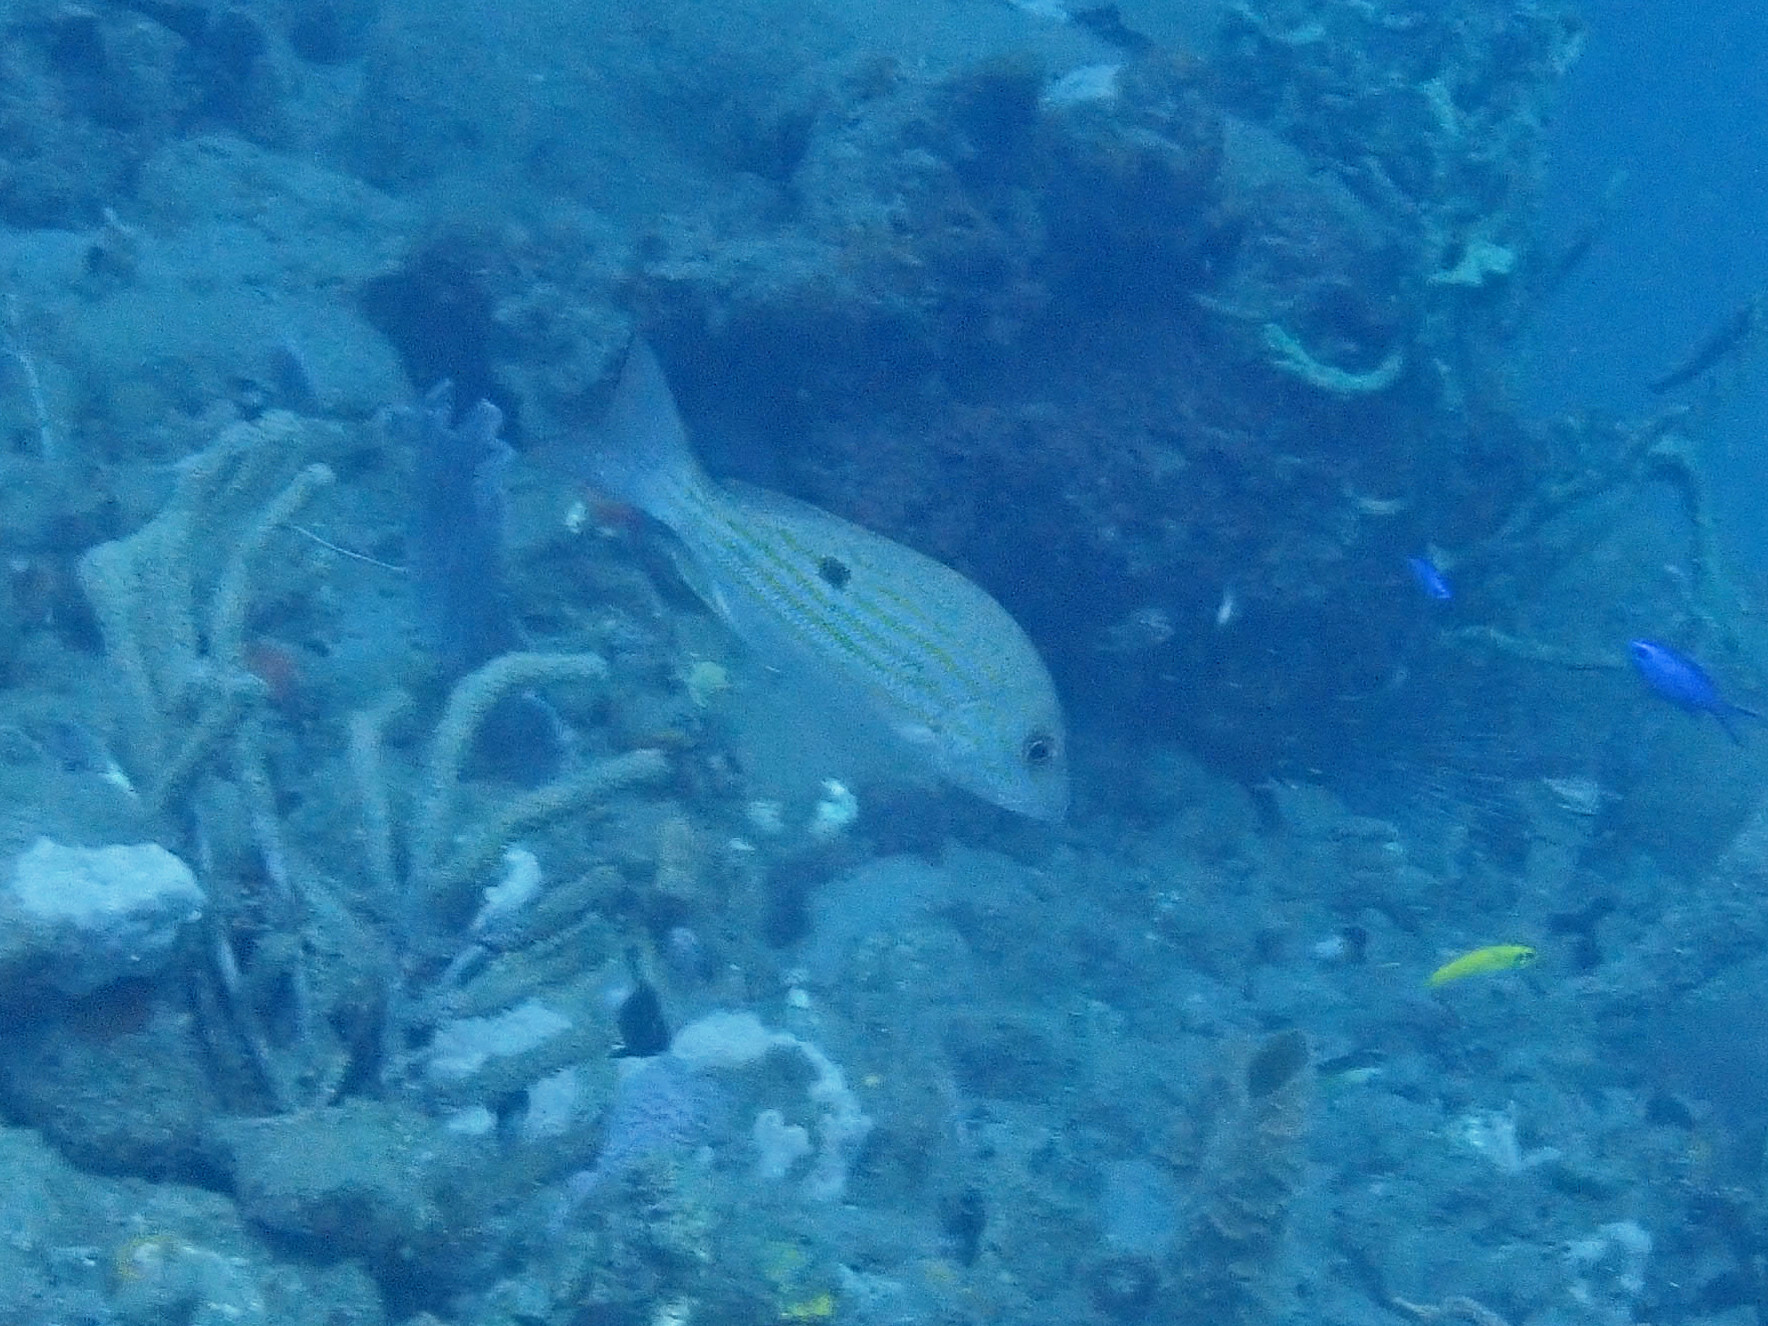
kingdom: Animalia
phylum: Chordata
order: Perciformes
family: Lutjanidae
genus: Lutjanus
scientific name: Lutjanus synagris
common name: Lane snapper
